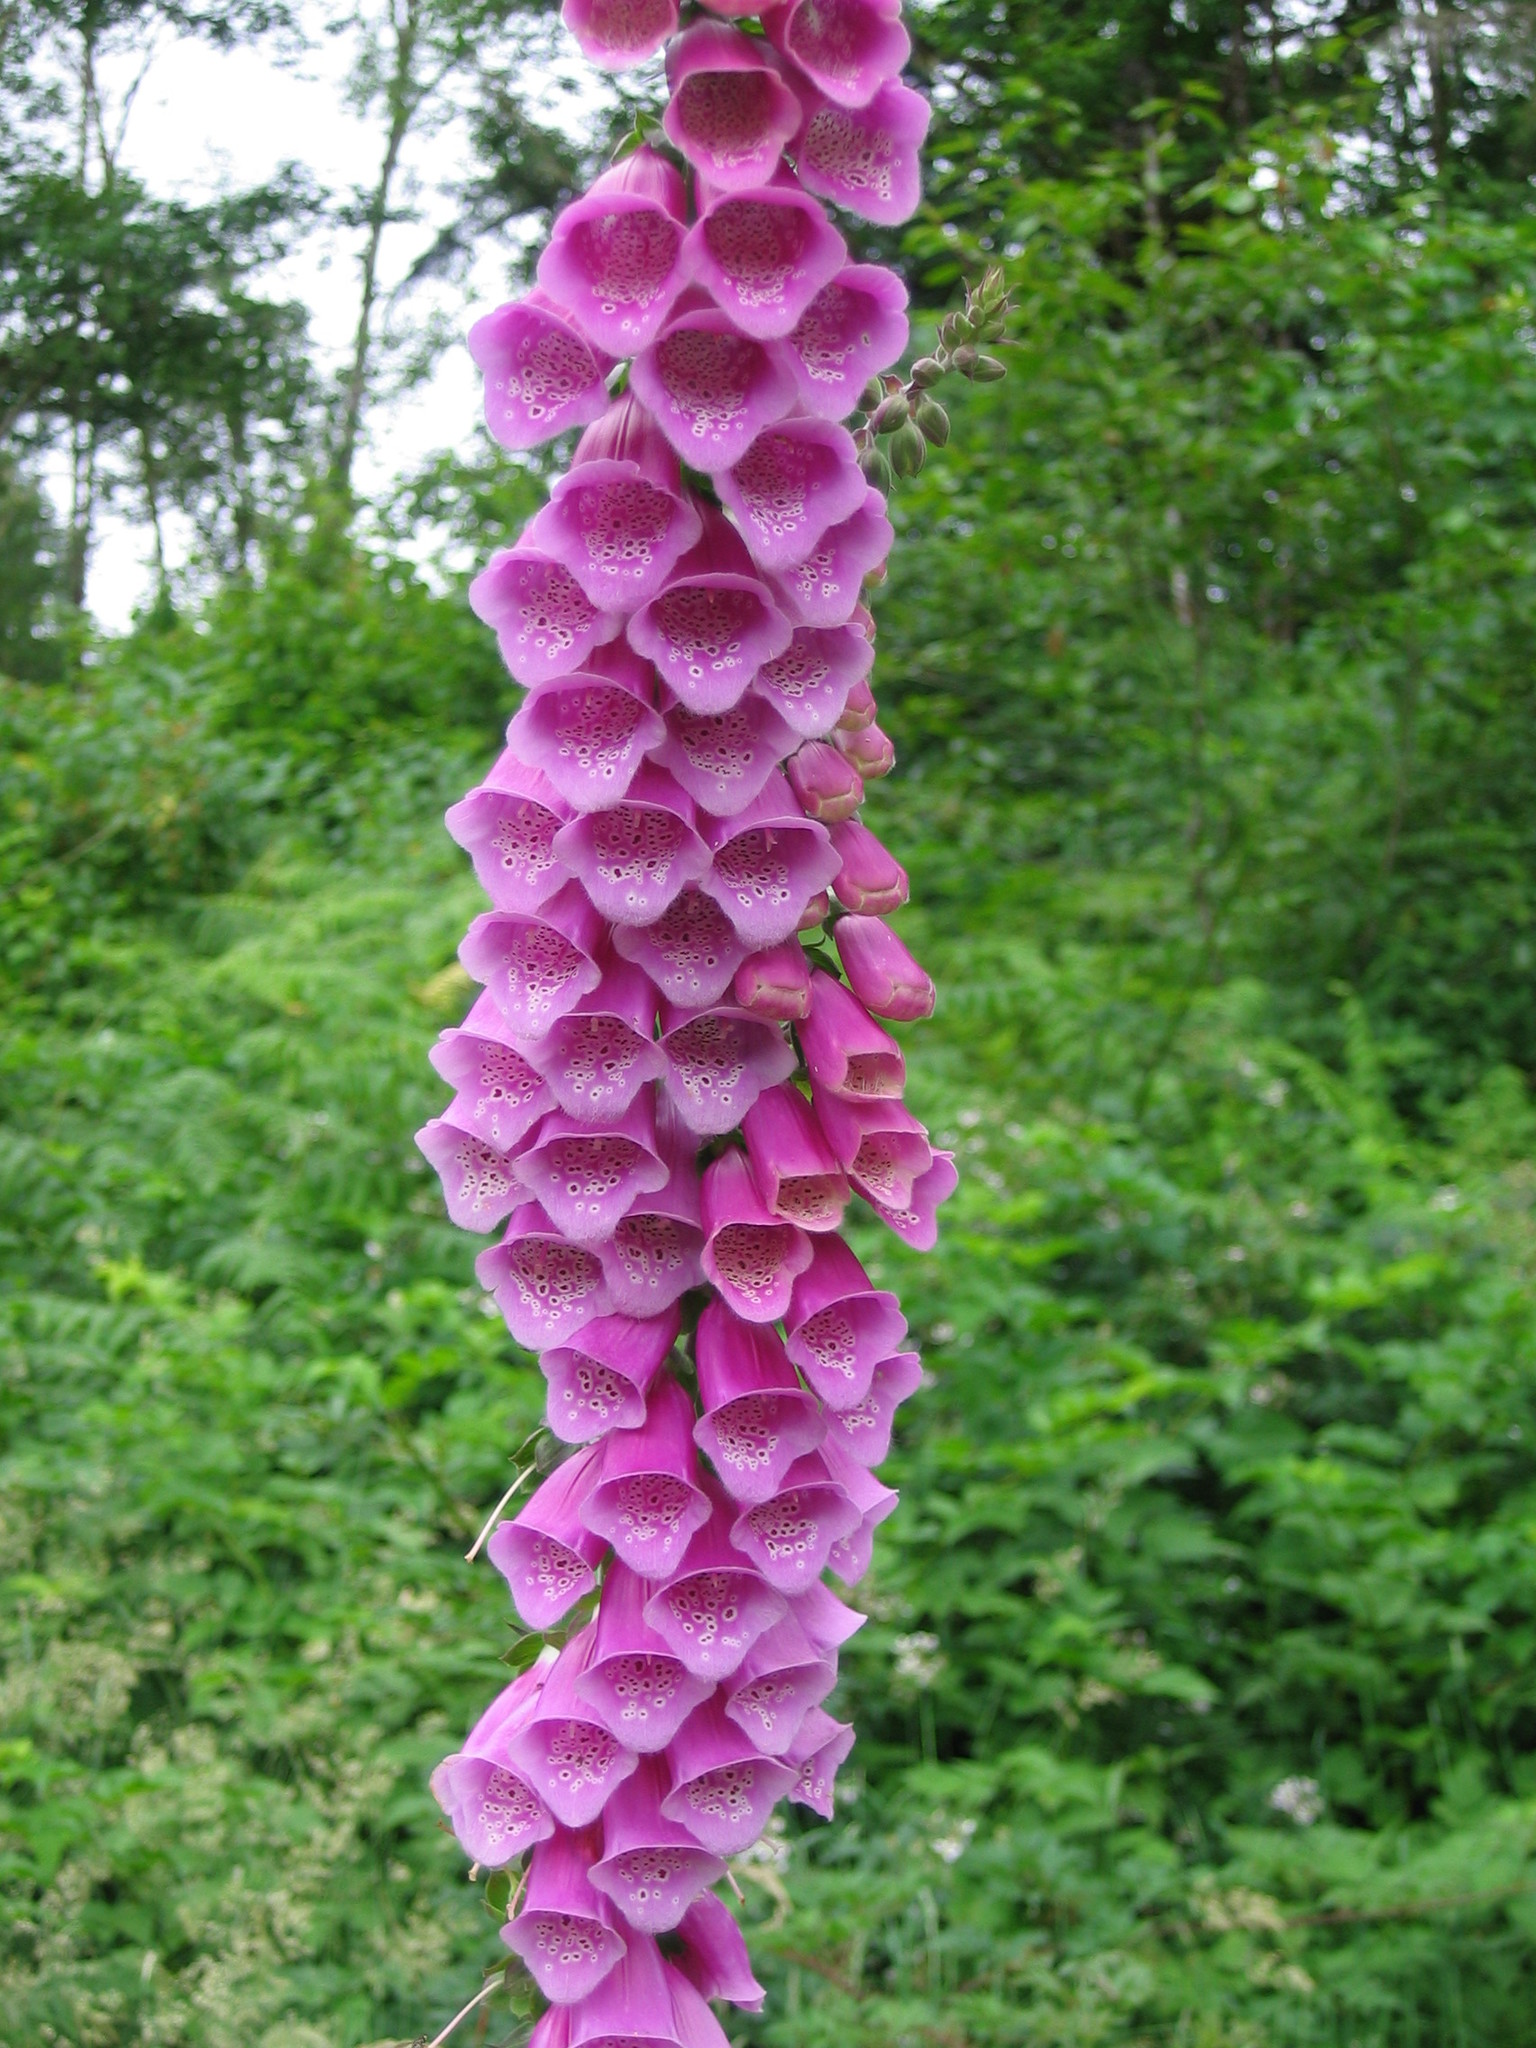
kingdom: Plantae
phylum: Tracheophyta
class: Magnoliopsida
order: Lamiales
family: Plantaginaceae
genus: Digitalis
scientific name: Digitalis purpurea
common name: Foxglove
